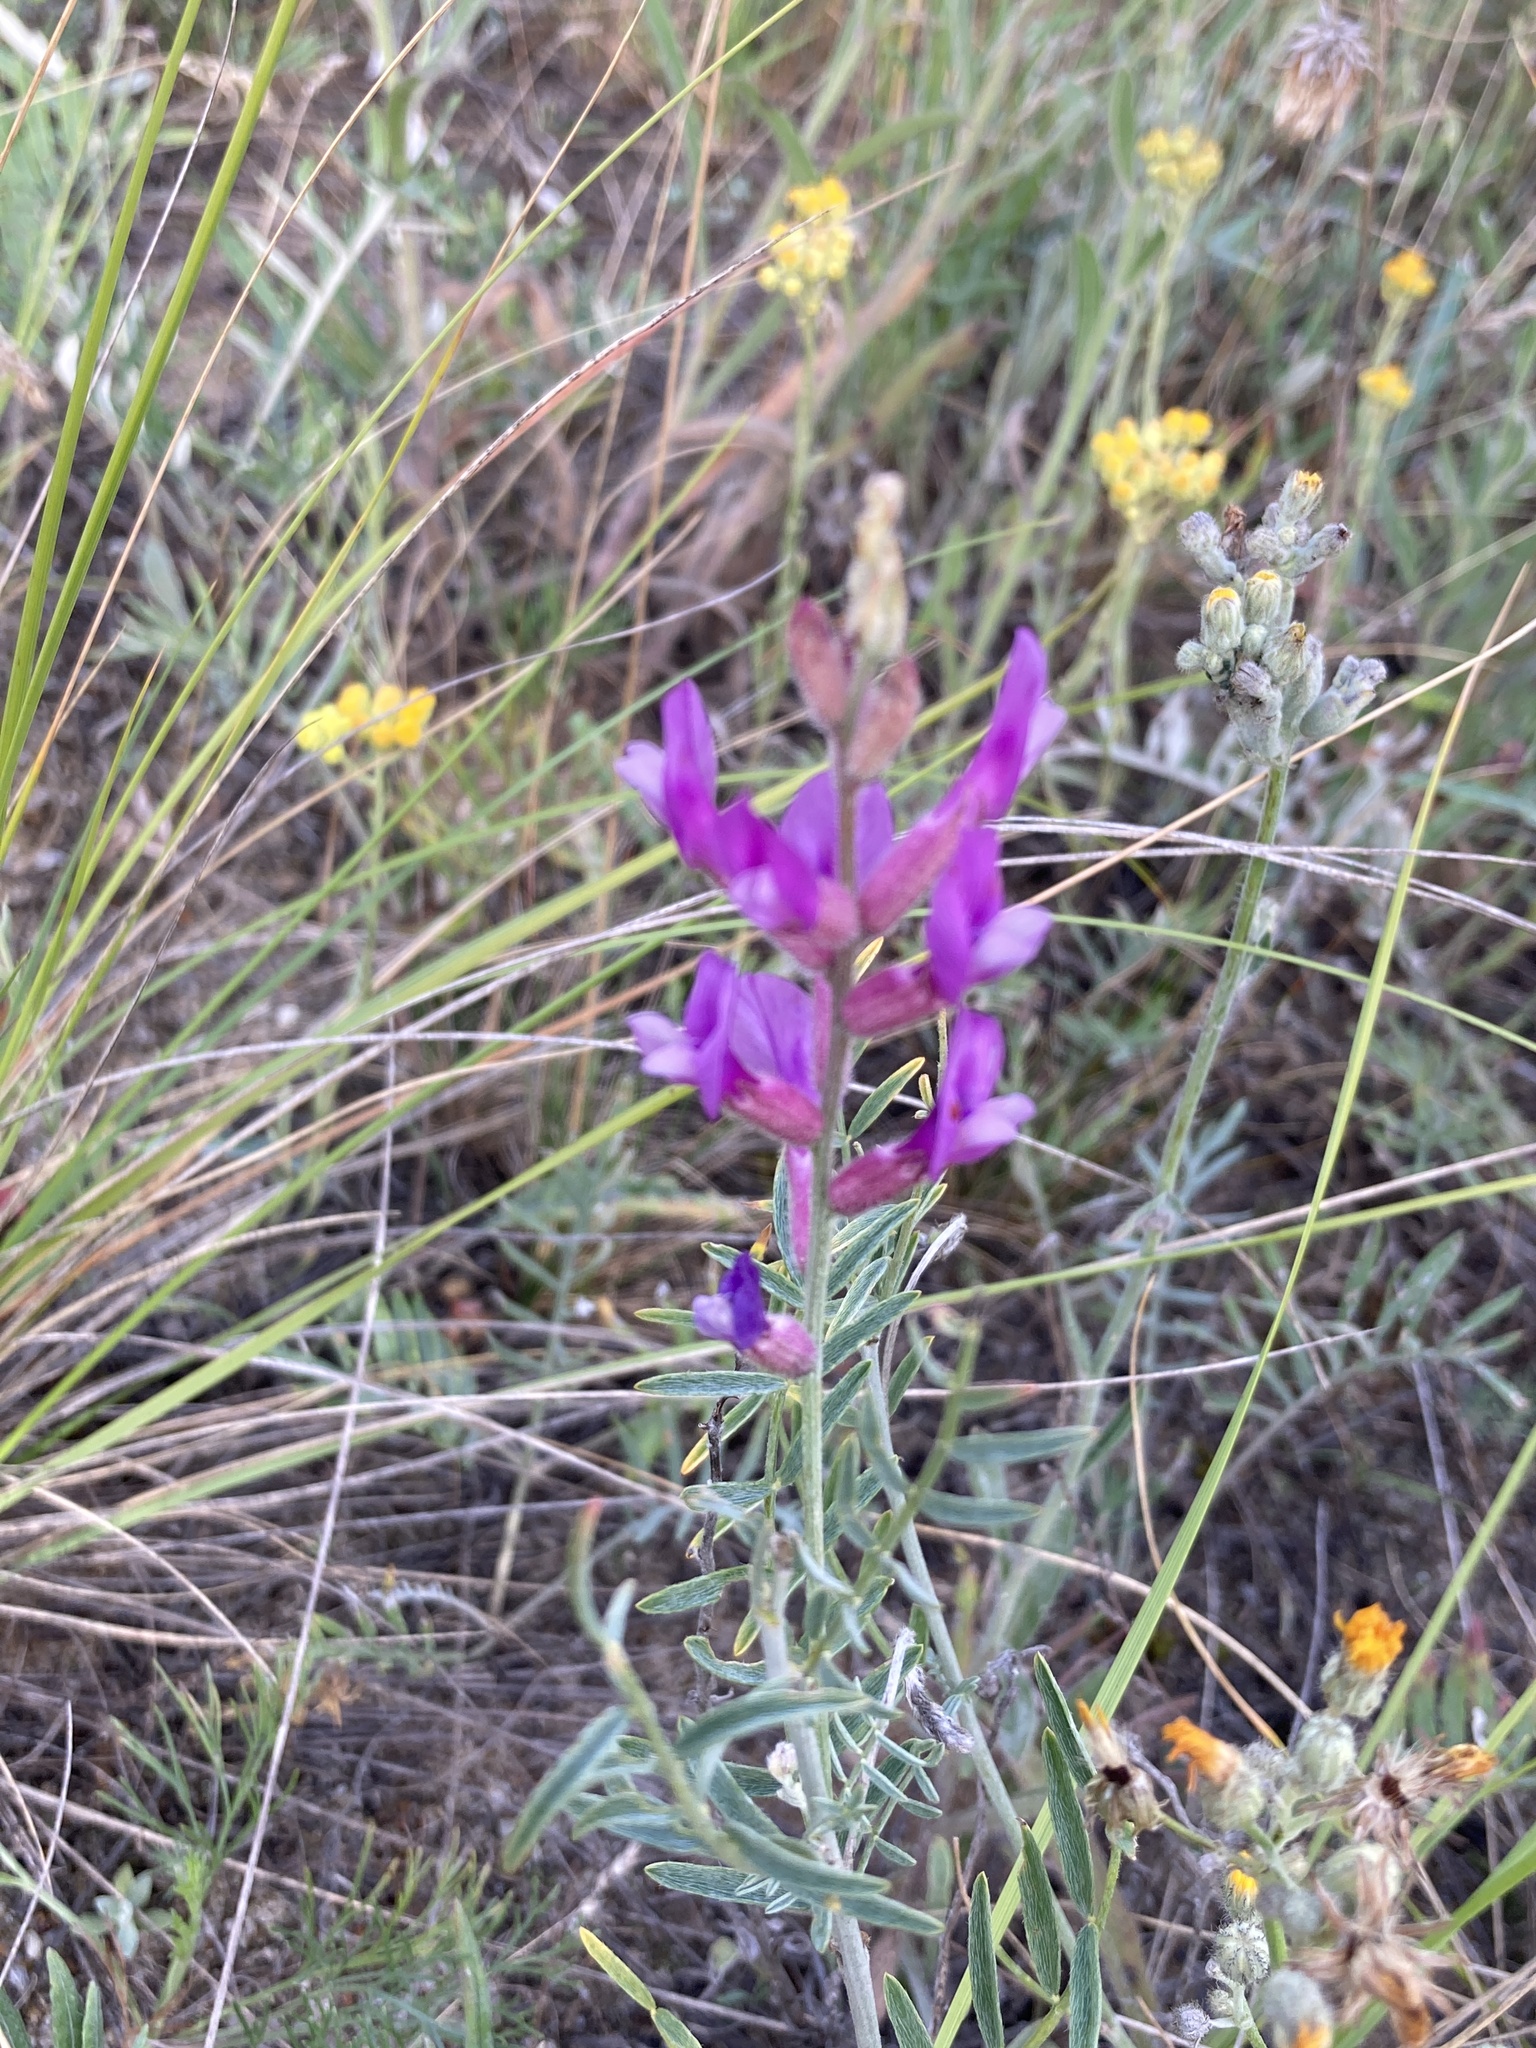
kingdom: Plantae
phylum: Tracheophyta
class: Magnoliopsida
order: Fabales
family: Fabaceae
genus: Astragalus
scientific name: Astragalus varius
